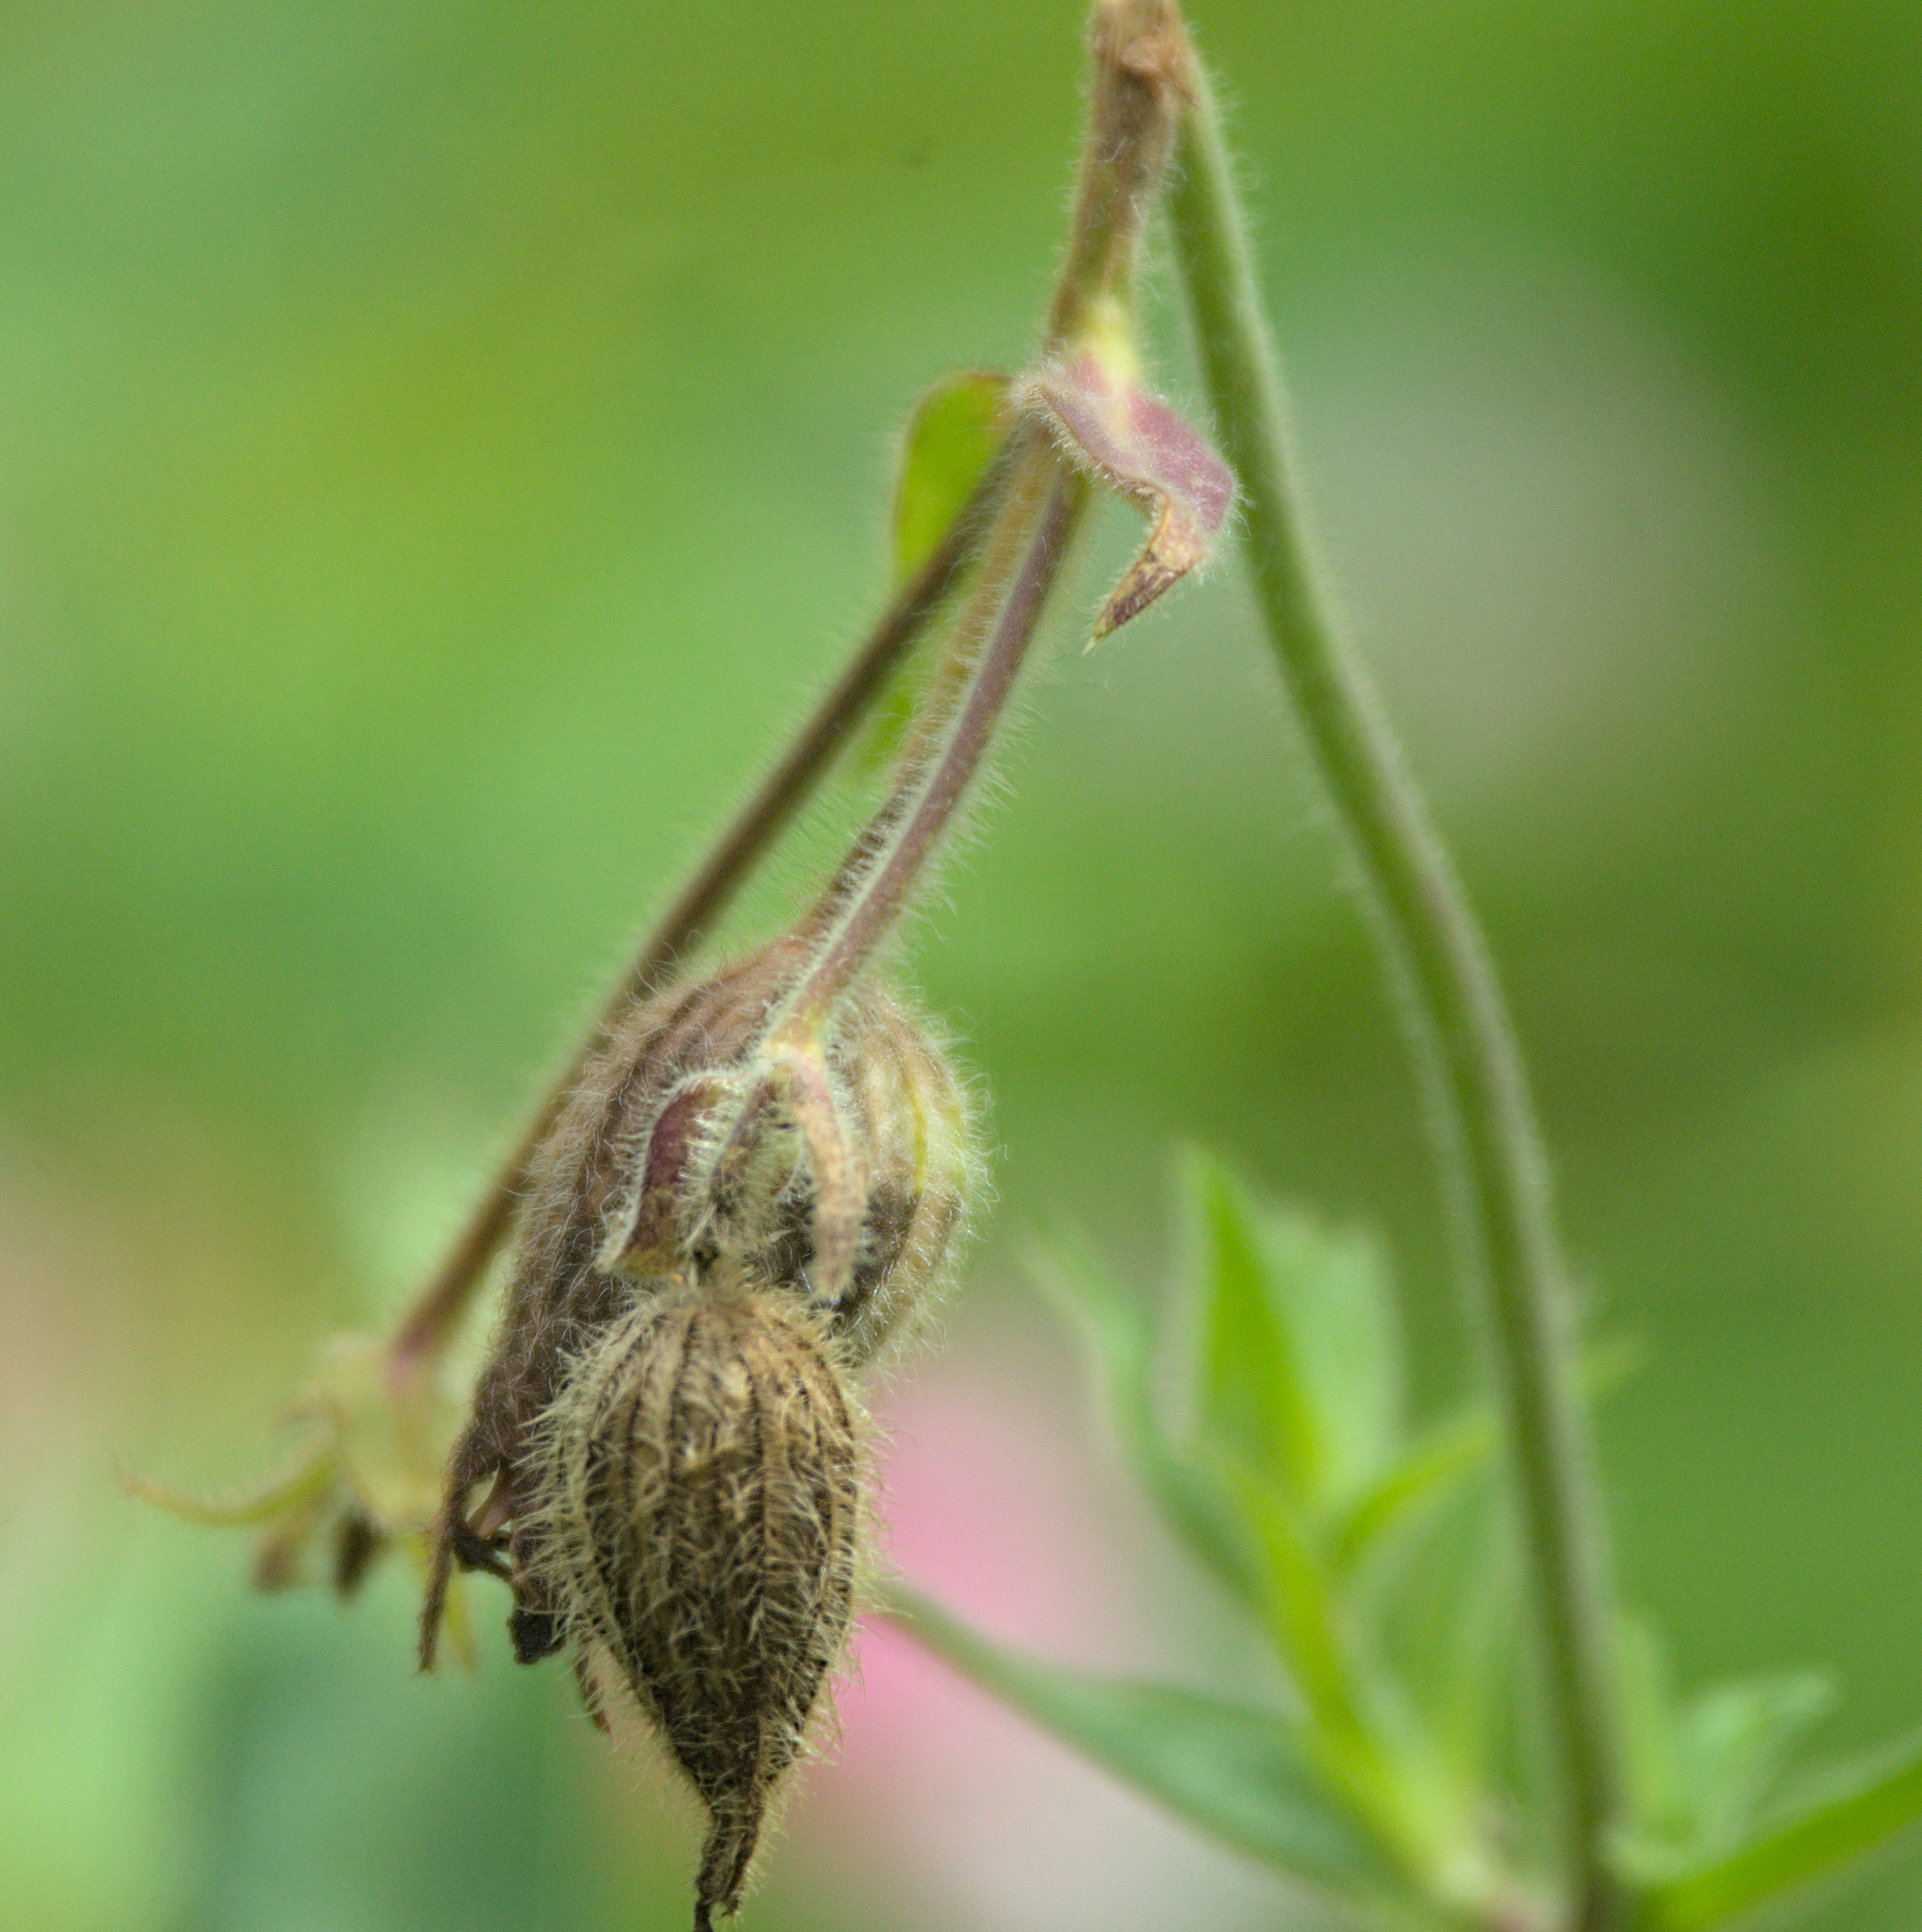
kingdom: Plantae
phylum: Tracheophyta
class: Magnoliopsida
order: Caryophyllales
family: Caryophyllaceae
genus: Silene
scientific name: Silene latifolia
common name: White campion
